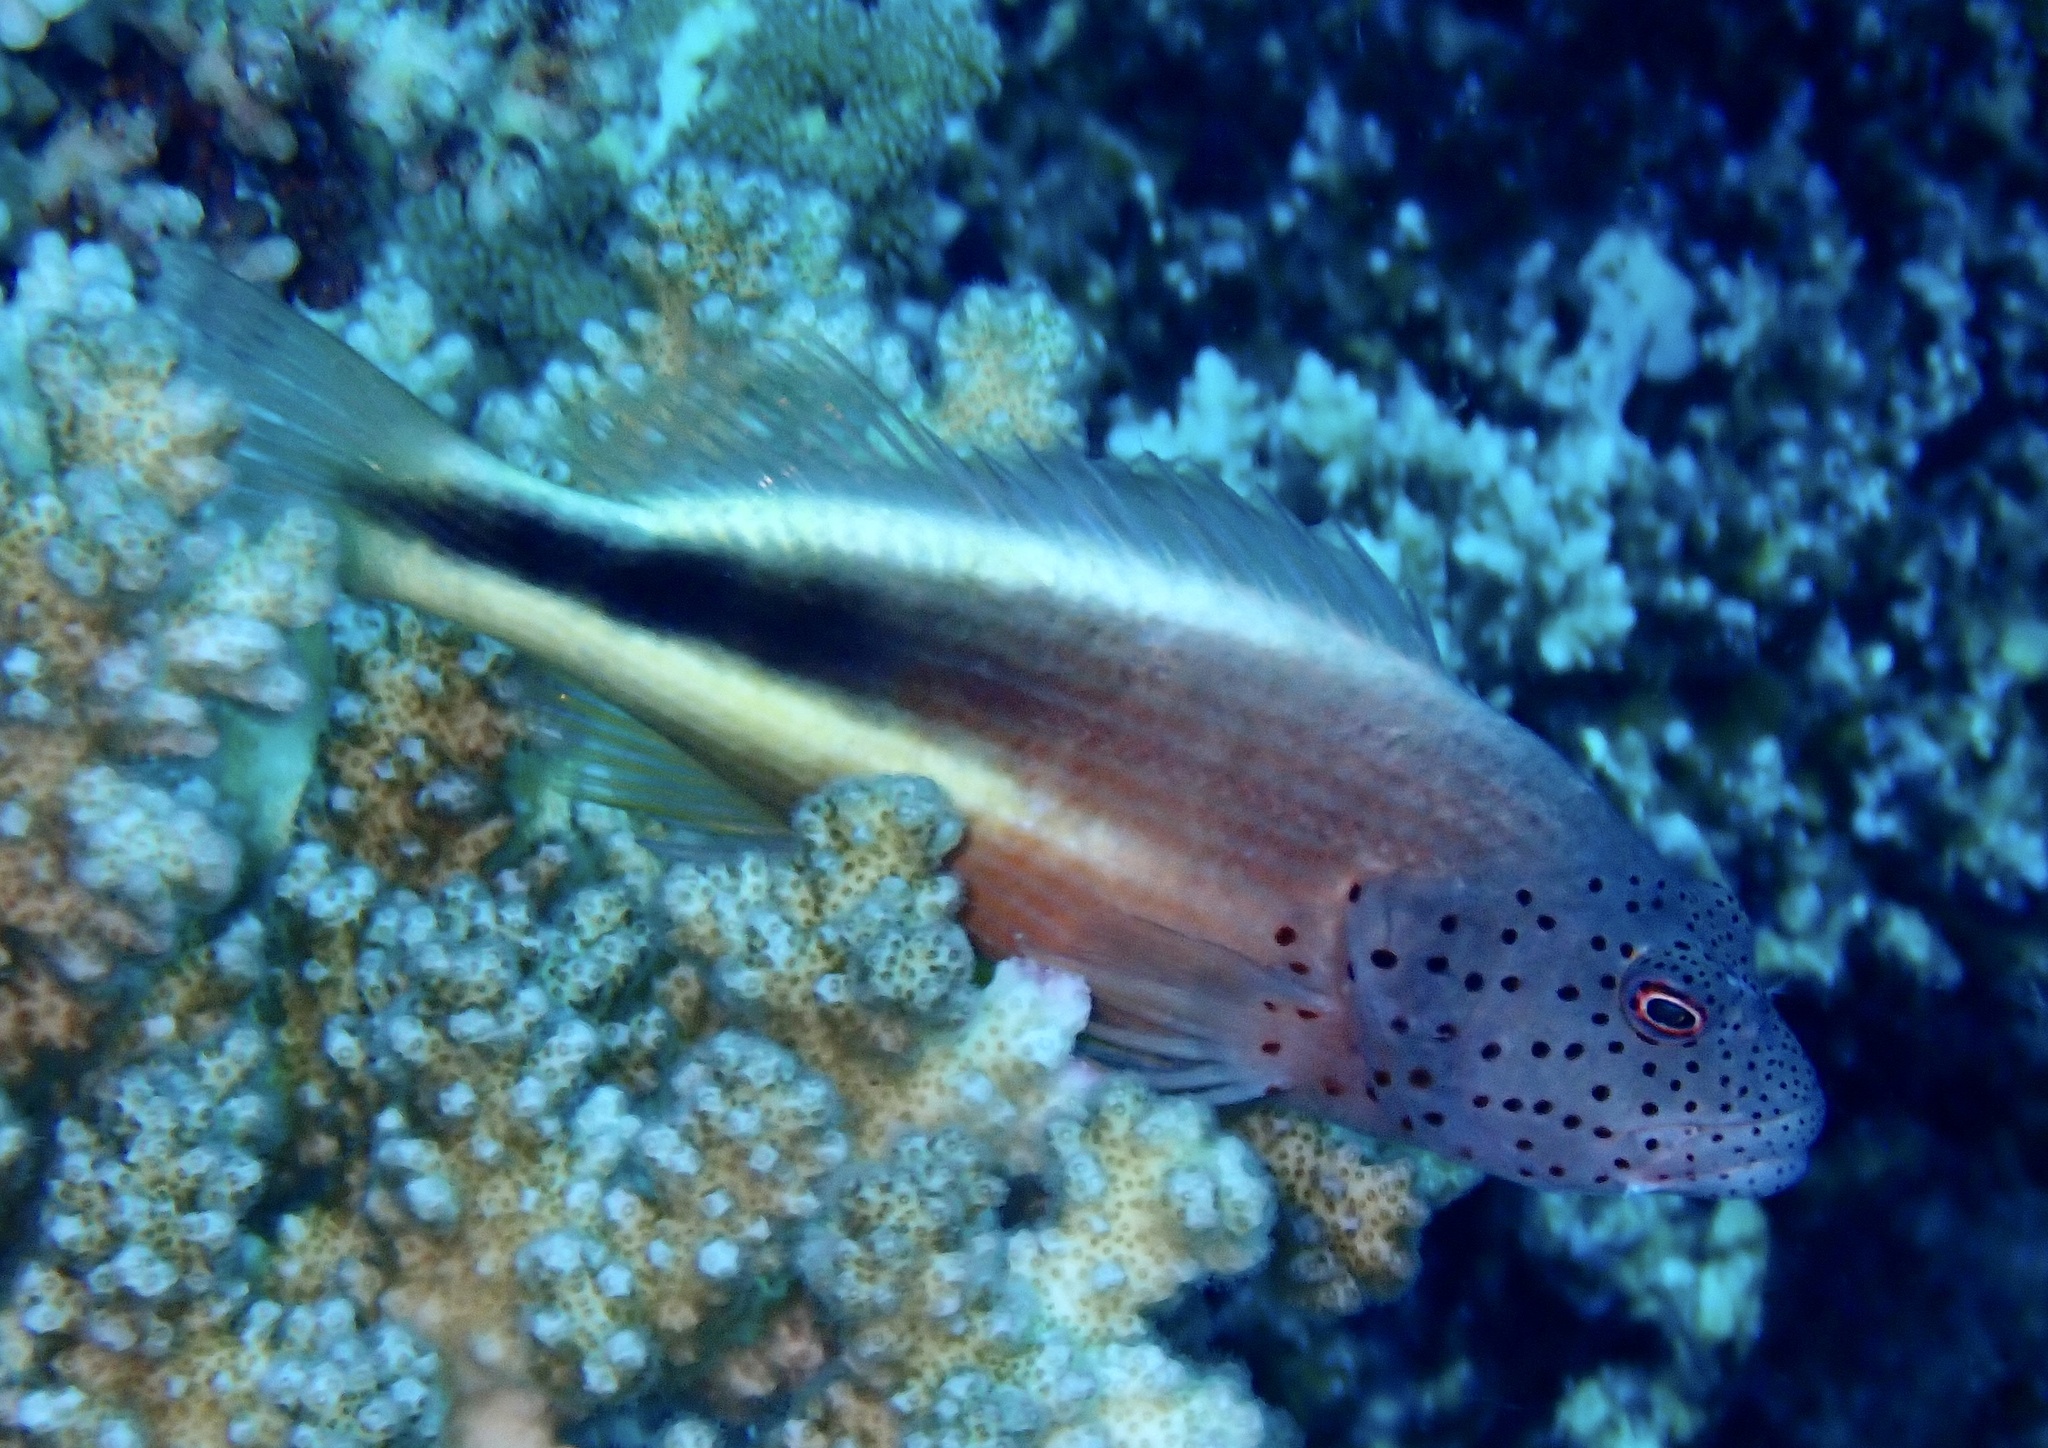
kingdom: Animalia
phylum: Chordata
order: Perciformes
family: Cirrhitidae
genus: Paracirrhites
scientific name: Paracirrhites forsteri
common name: Freckled hawkfish
